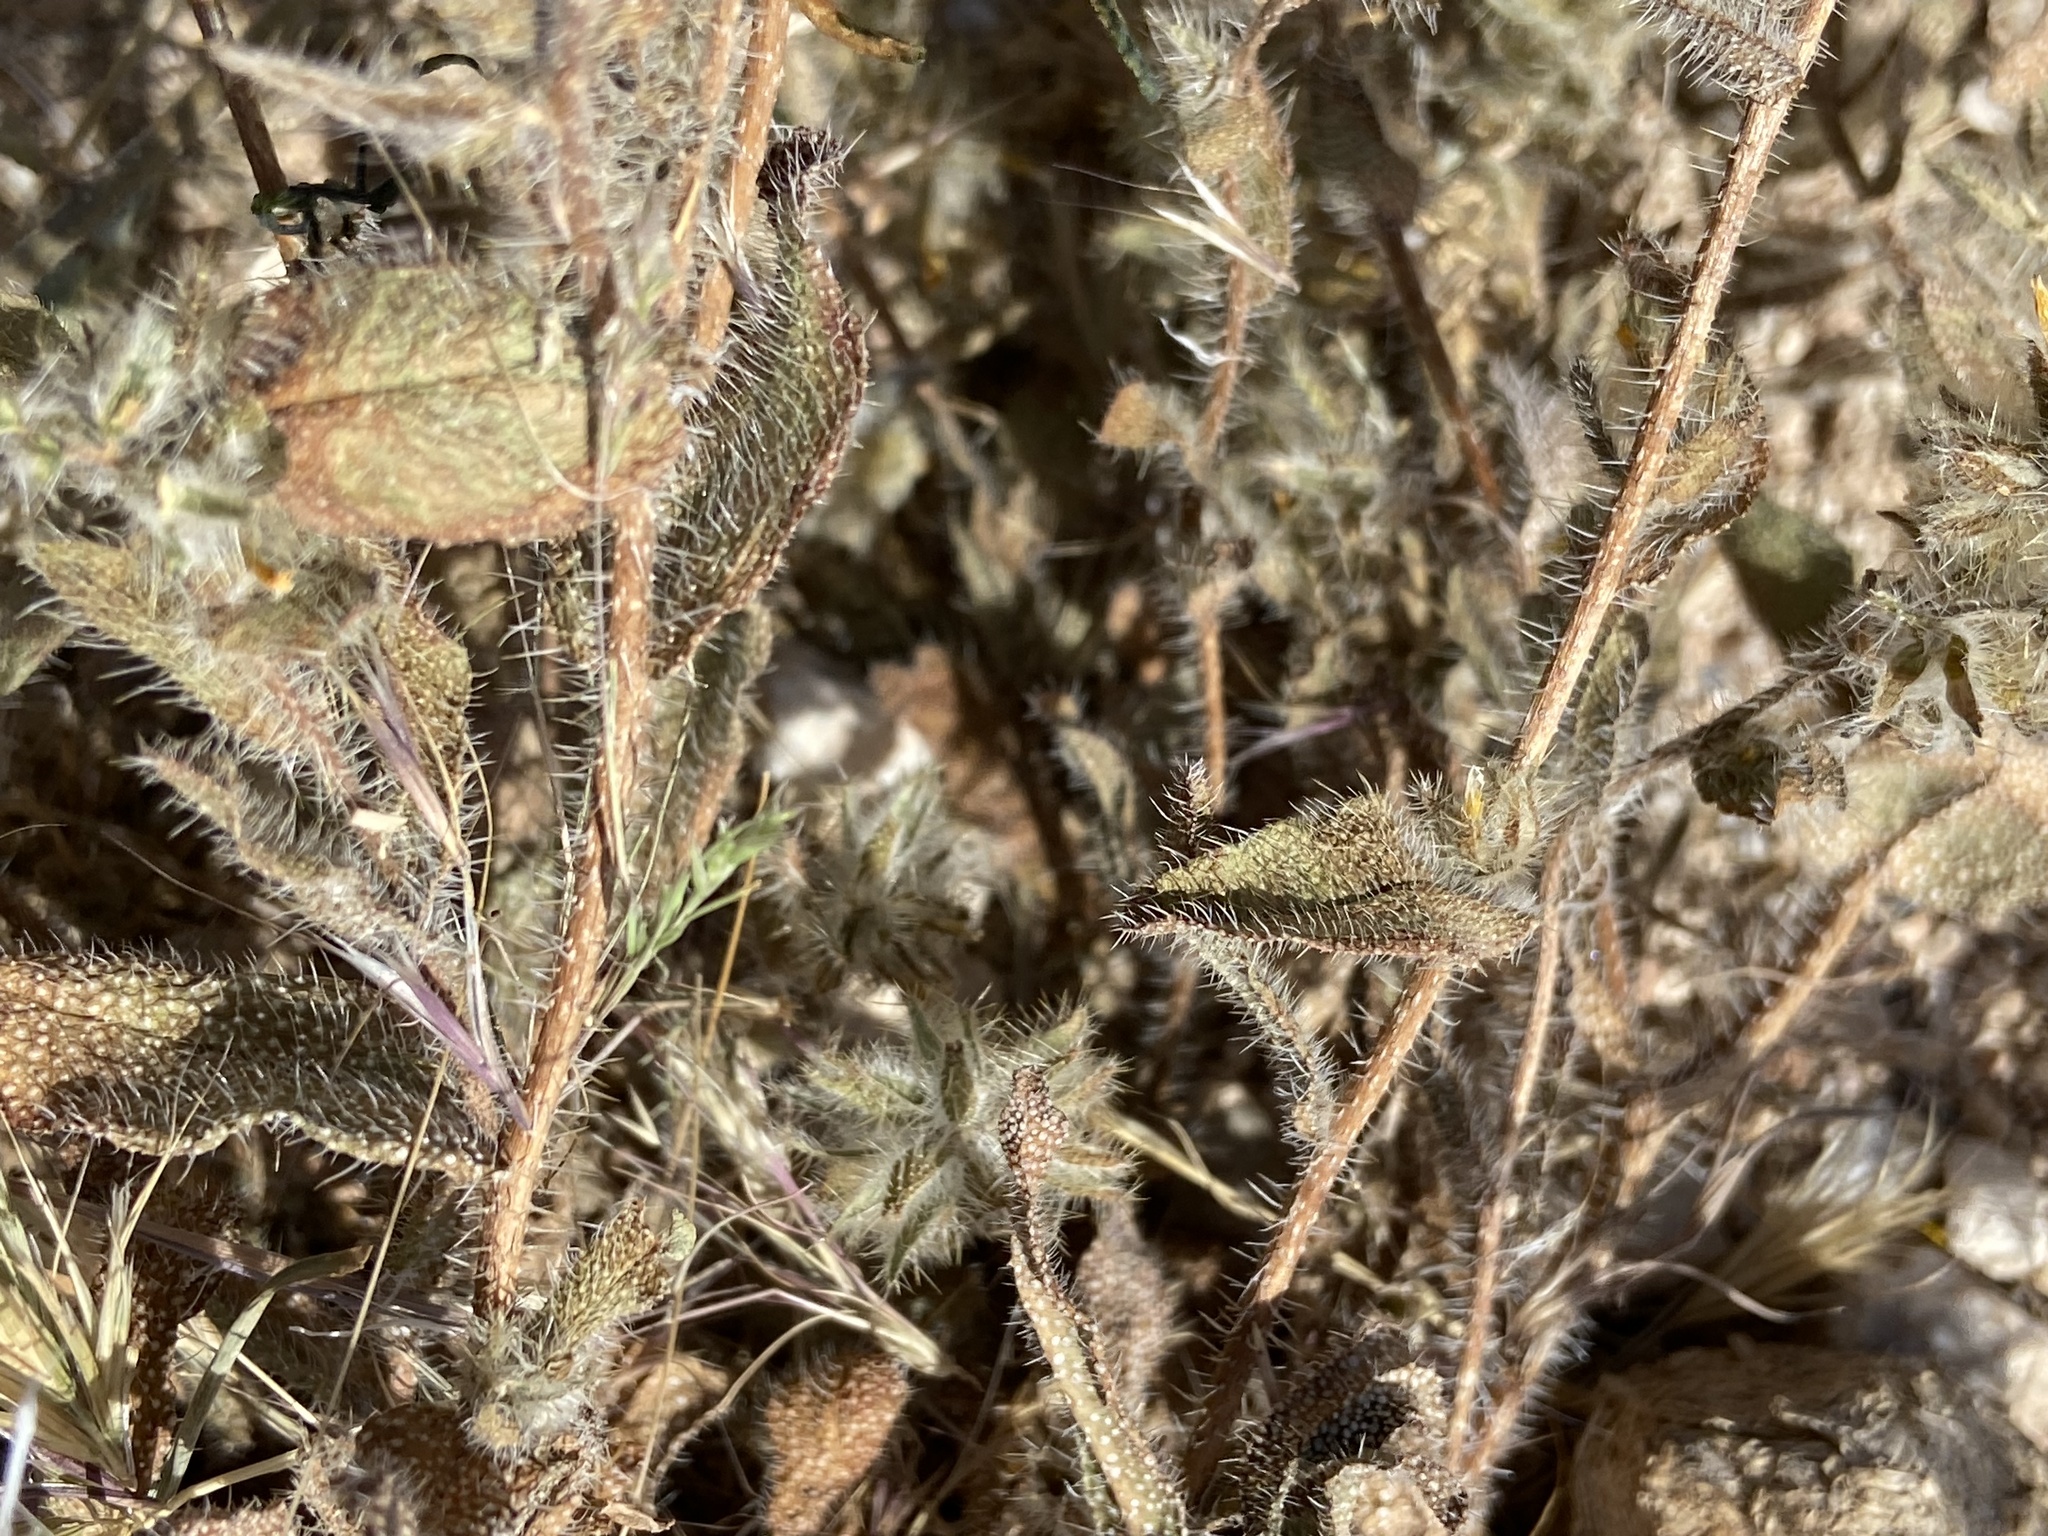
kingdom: Plantae
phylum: Tracheophyta
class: Magnoliopsida
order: Boraginales
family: Boraginaceae
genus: Amsinckia
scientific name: Amsinckia tessellata
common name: Tessellate fiddleneck
